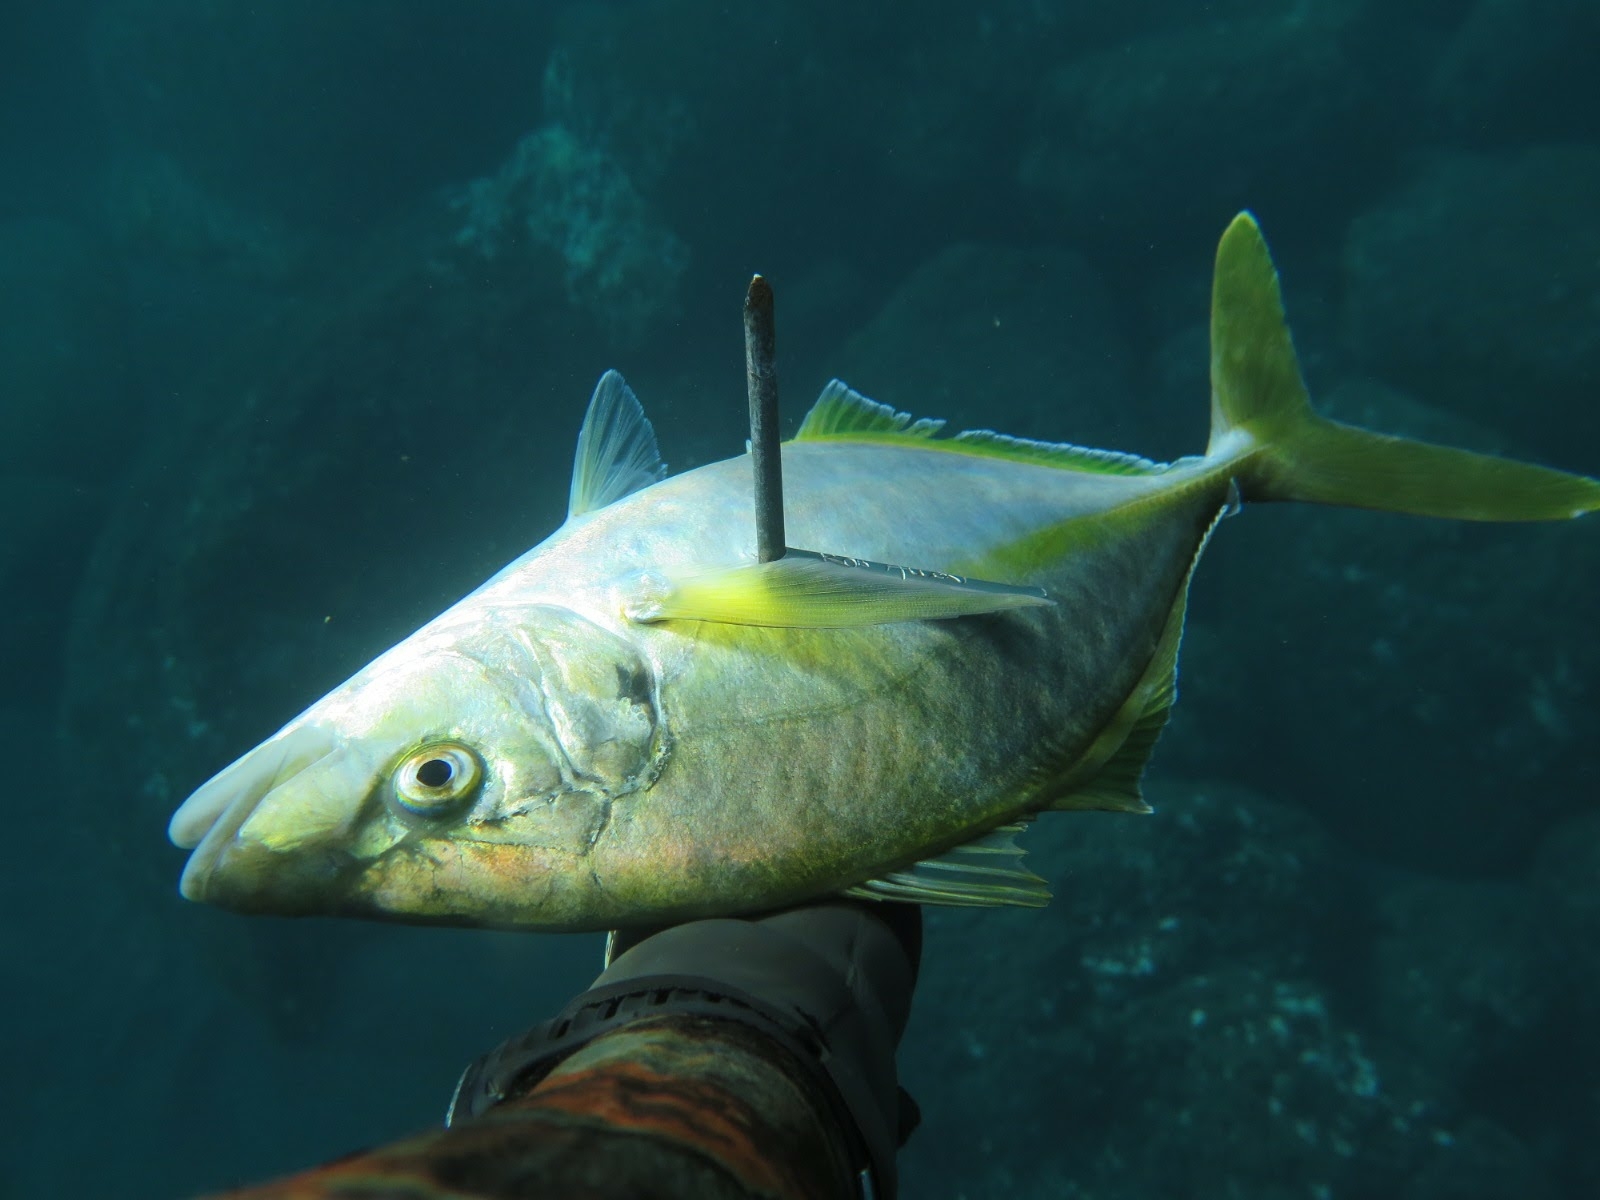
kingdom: Animalia
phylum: Chordata
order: Perciformes
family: Carangidae
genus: Pseudocaranx
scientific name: Pseudocaranx dentex
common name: White trevally
